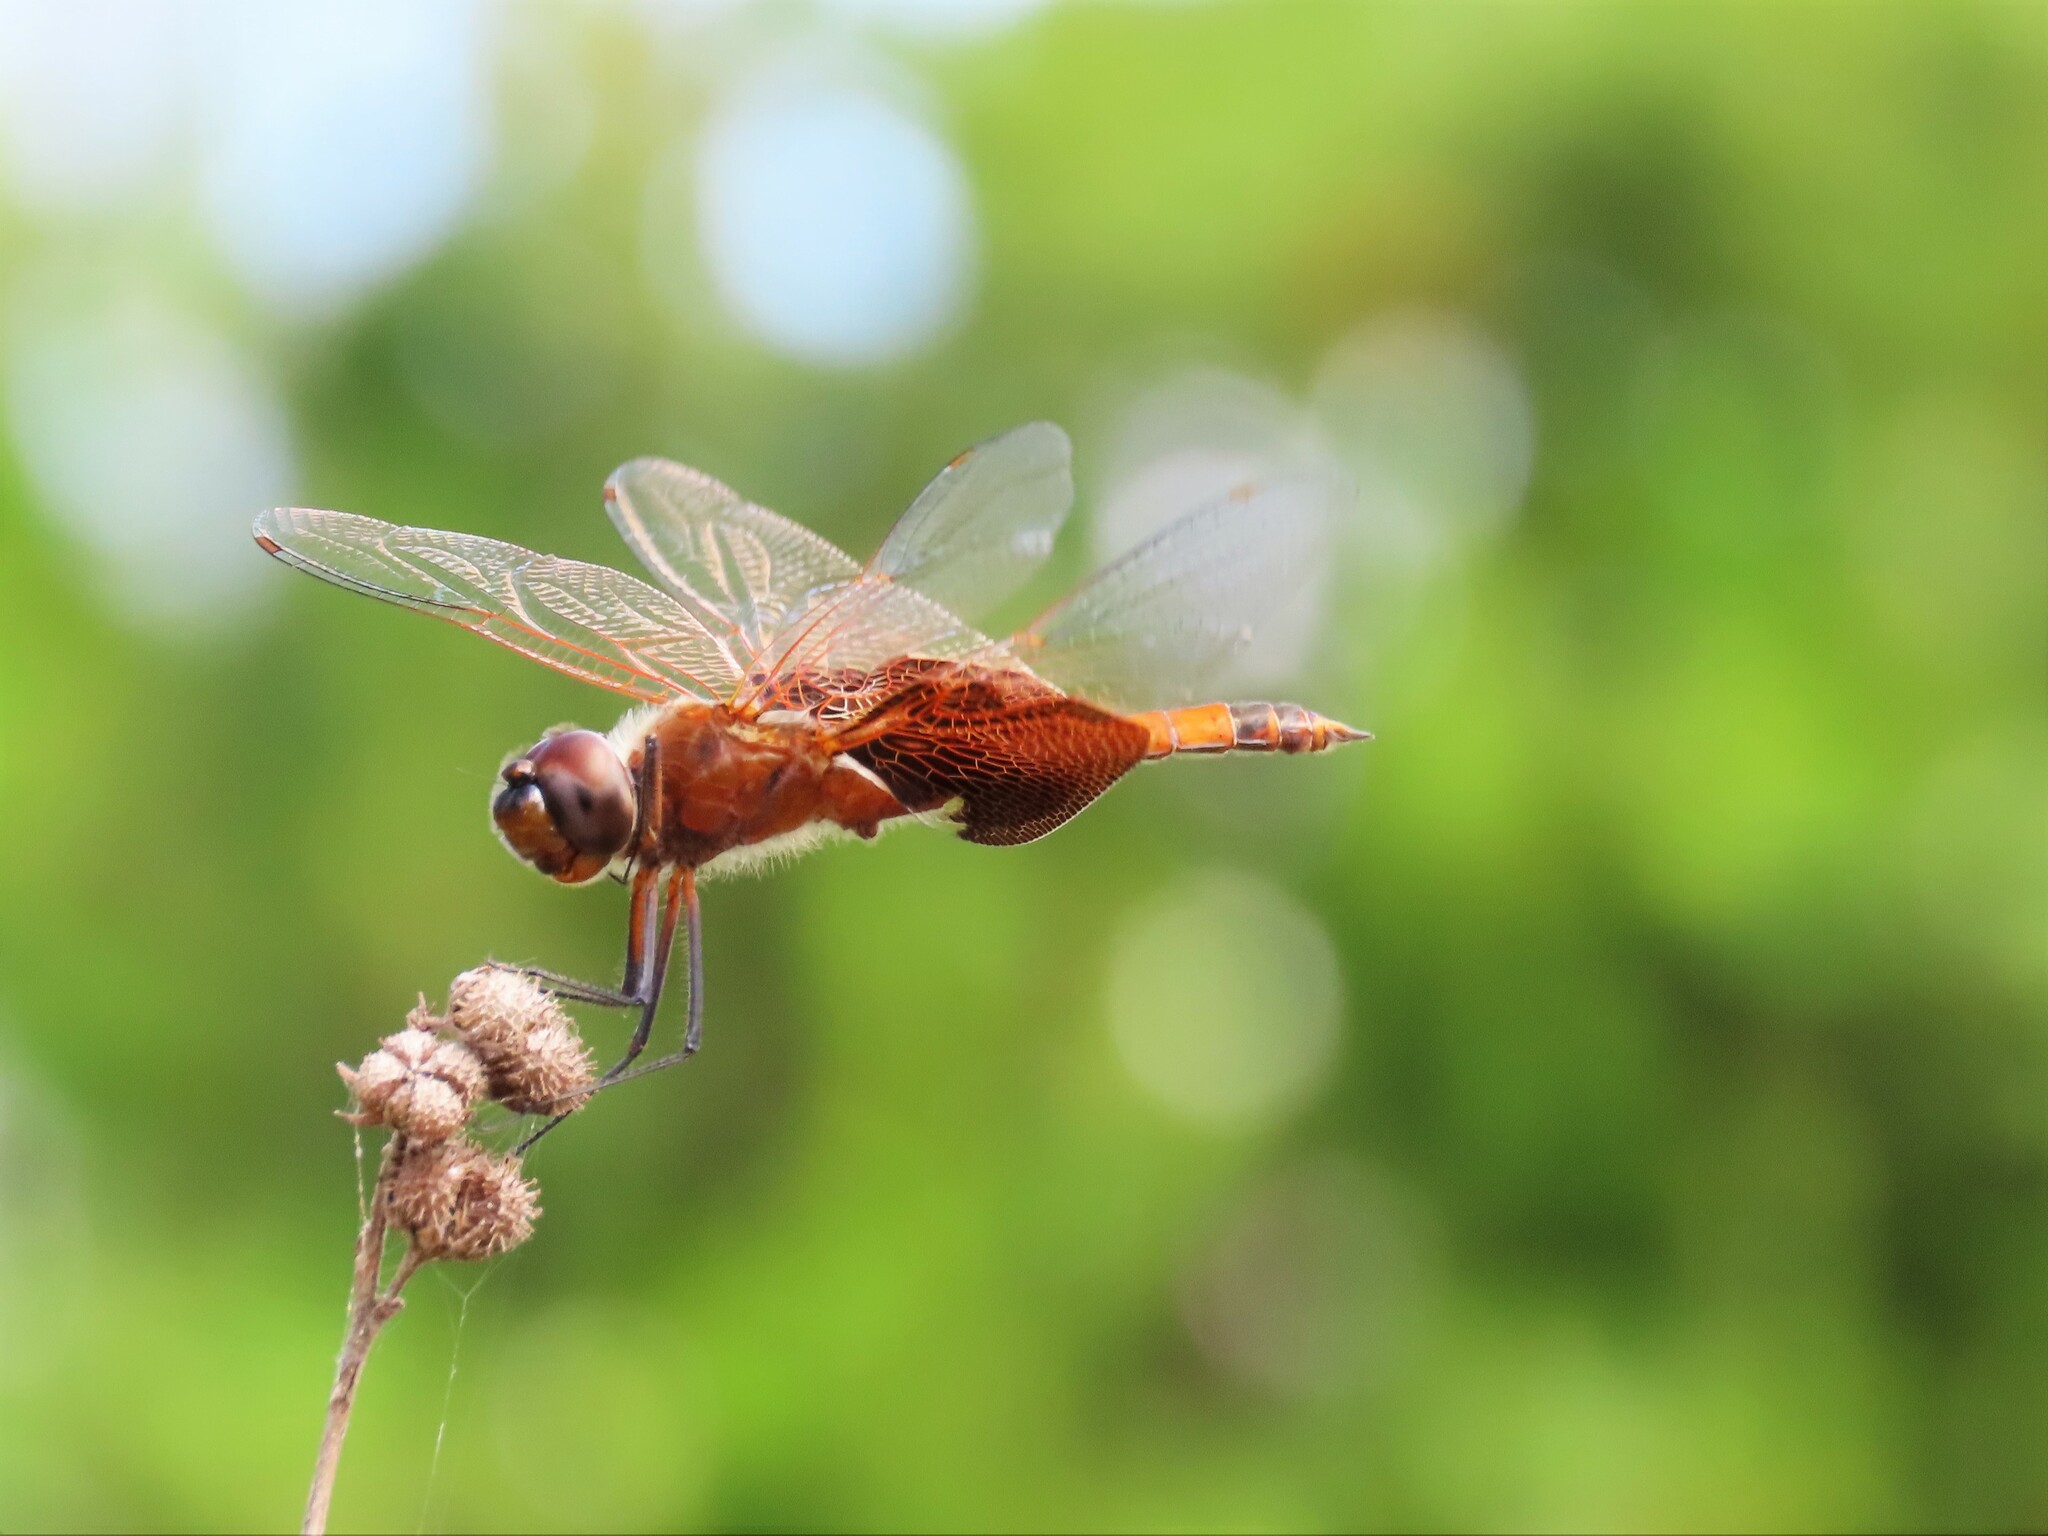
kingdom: Animalia
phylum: Arthropoda
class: Insecta
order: Odonata
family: Libellulidae
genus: Tramea
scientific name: Tramea carolina
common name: Carolina saddlebags
